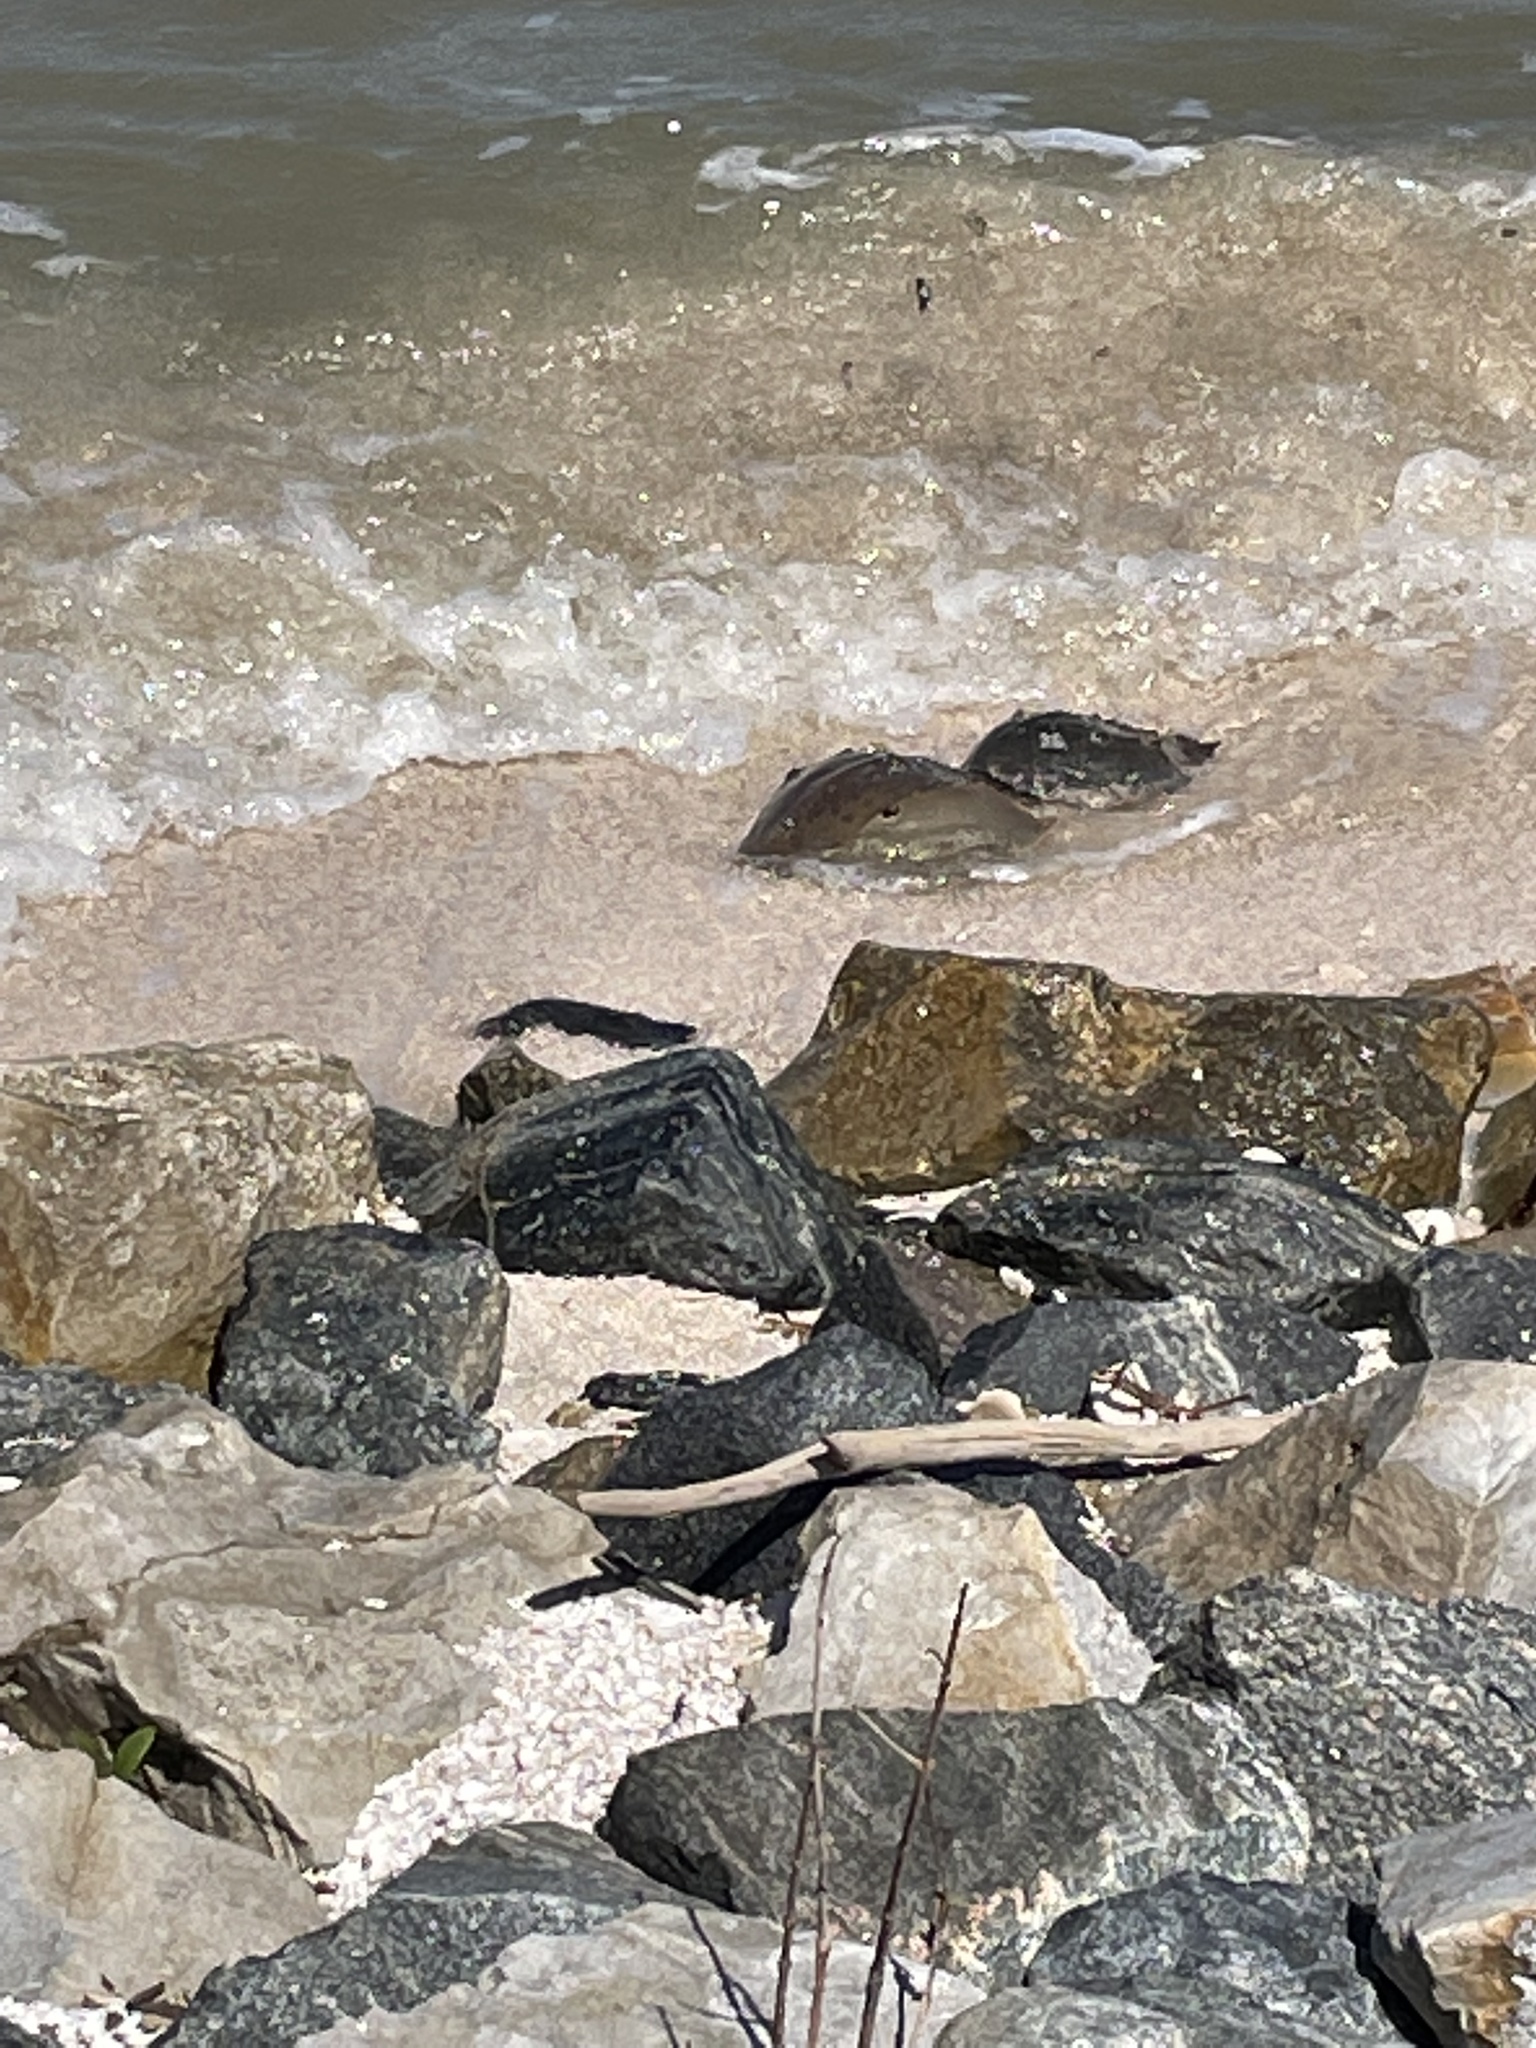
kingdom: Animalia
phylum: Arthropoda
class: Merostomata
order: Xiphosurida
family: Limulidae
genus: Limulus
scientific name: Limulus polyphemus
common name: Horseshoe crab
